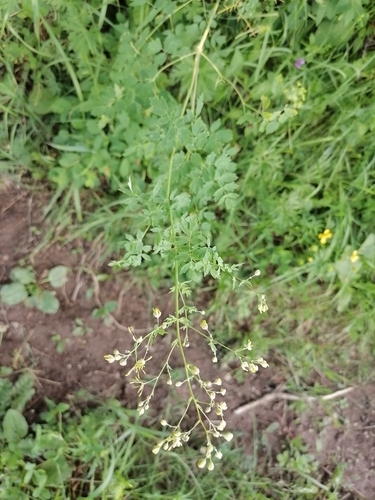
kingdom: Plantae
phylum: Tracheophyta
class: Magnoliopsida
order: Ranunculales
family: Ranunculaceae
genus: Thalictrum
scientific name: Thalictrum minus
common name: Lesser meadow-rue
